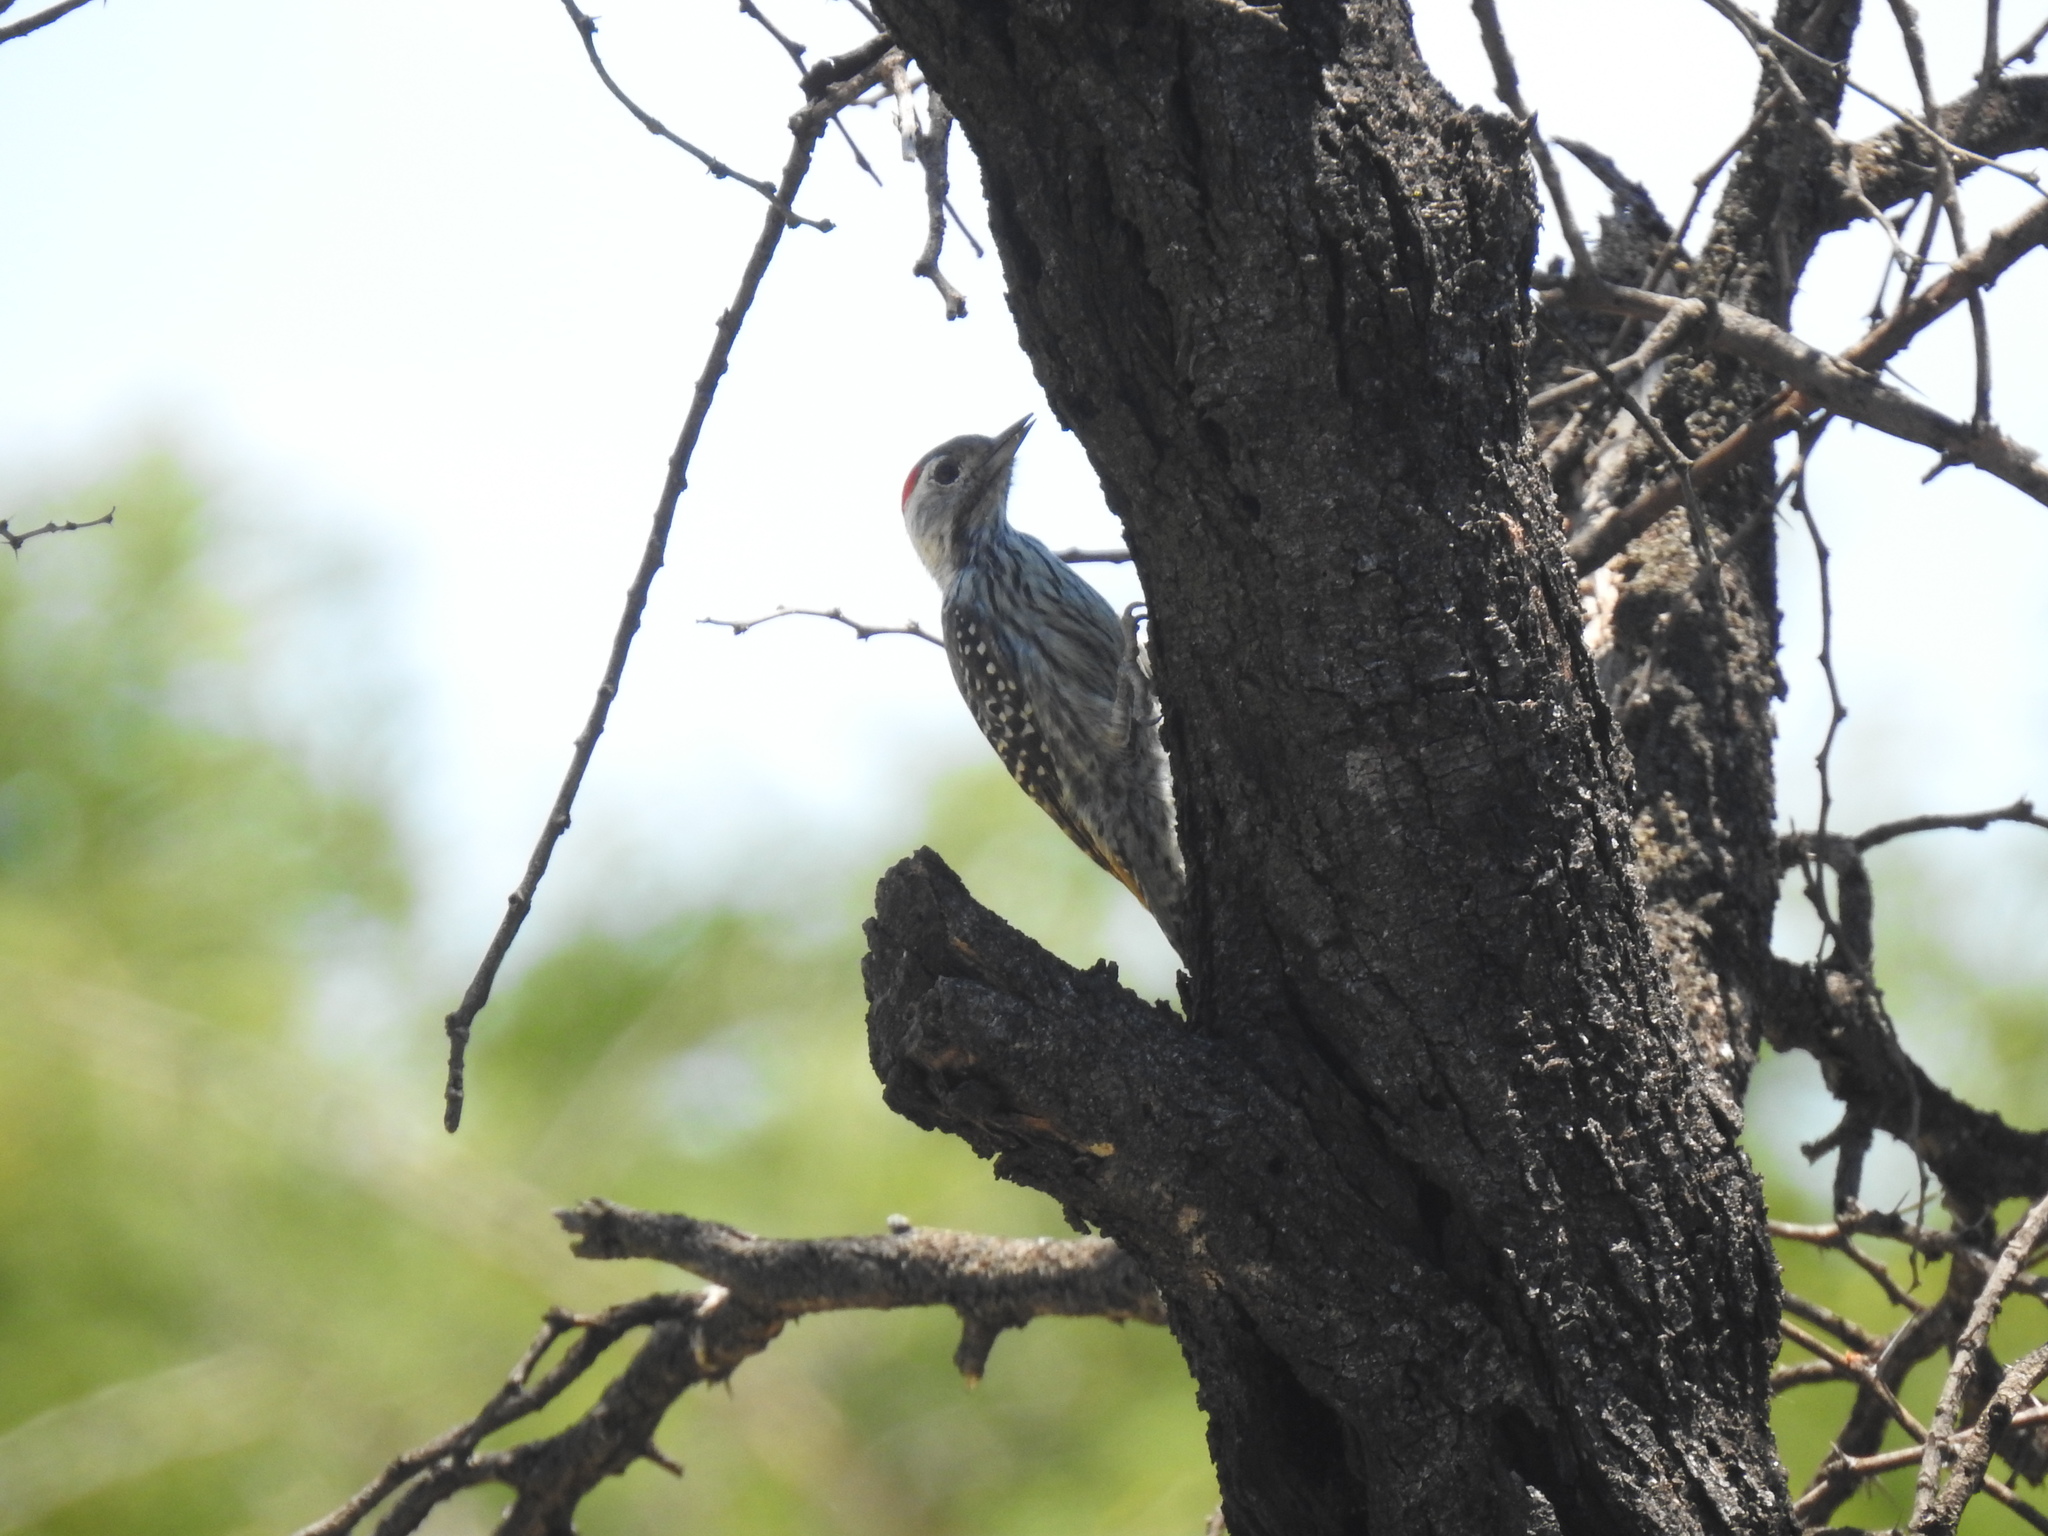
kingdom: Animalia
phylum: Chordata
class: Aves
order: Piciformes
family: Picidae
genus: Dendropicos
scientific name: Dendropicos fuscescens
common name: Cardinal woodpecker
